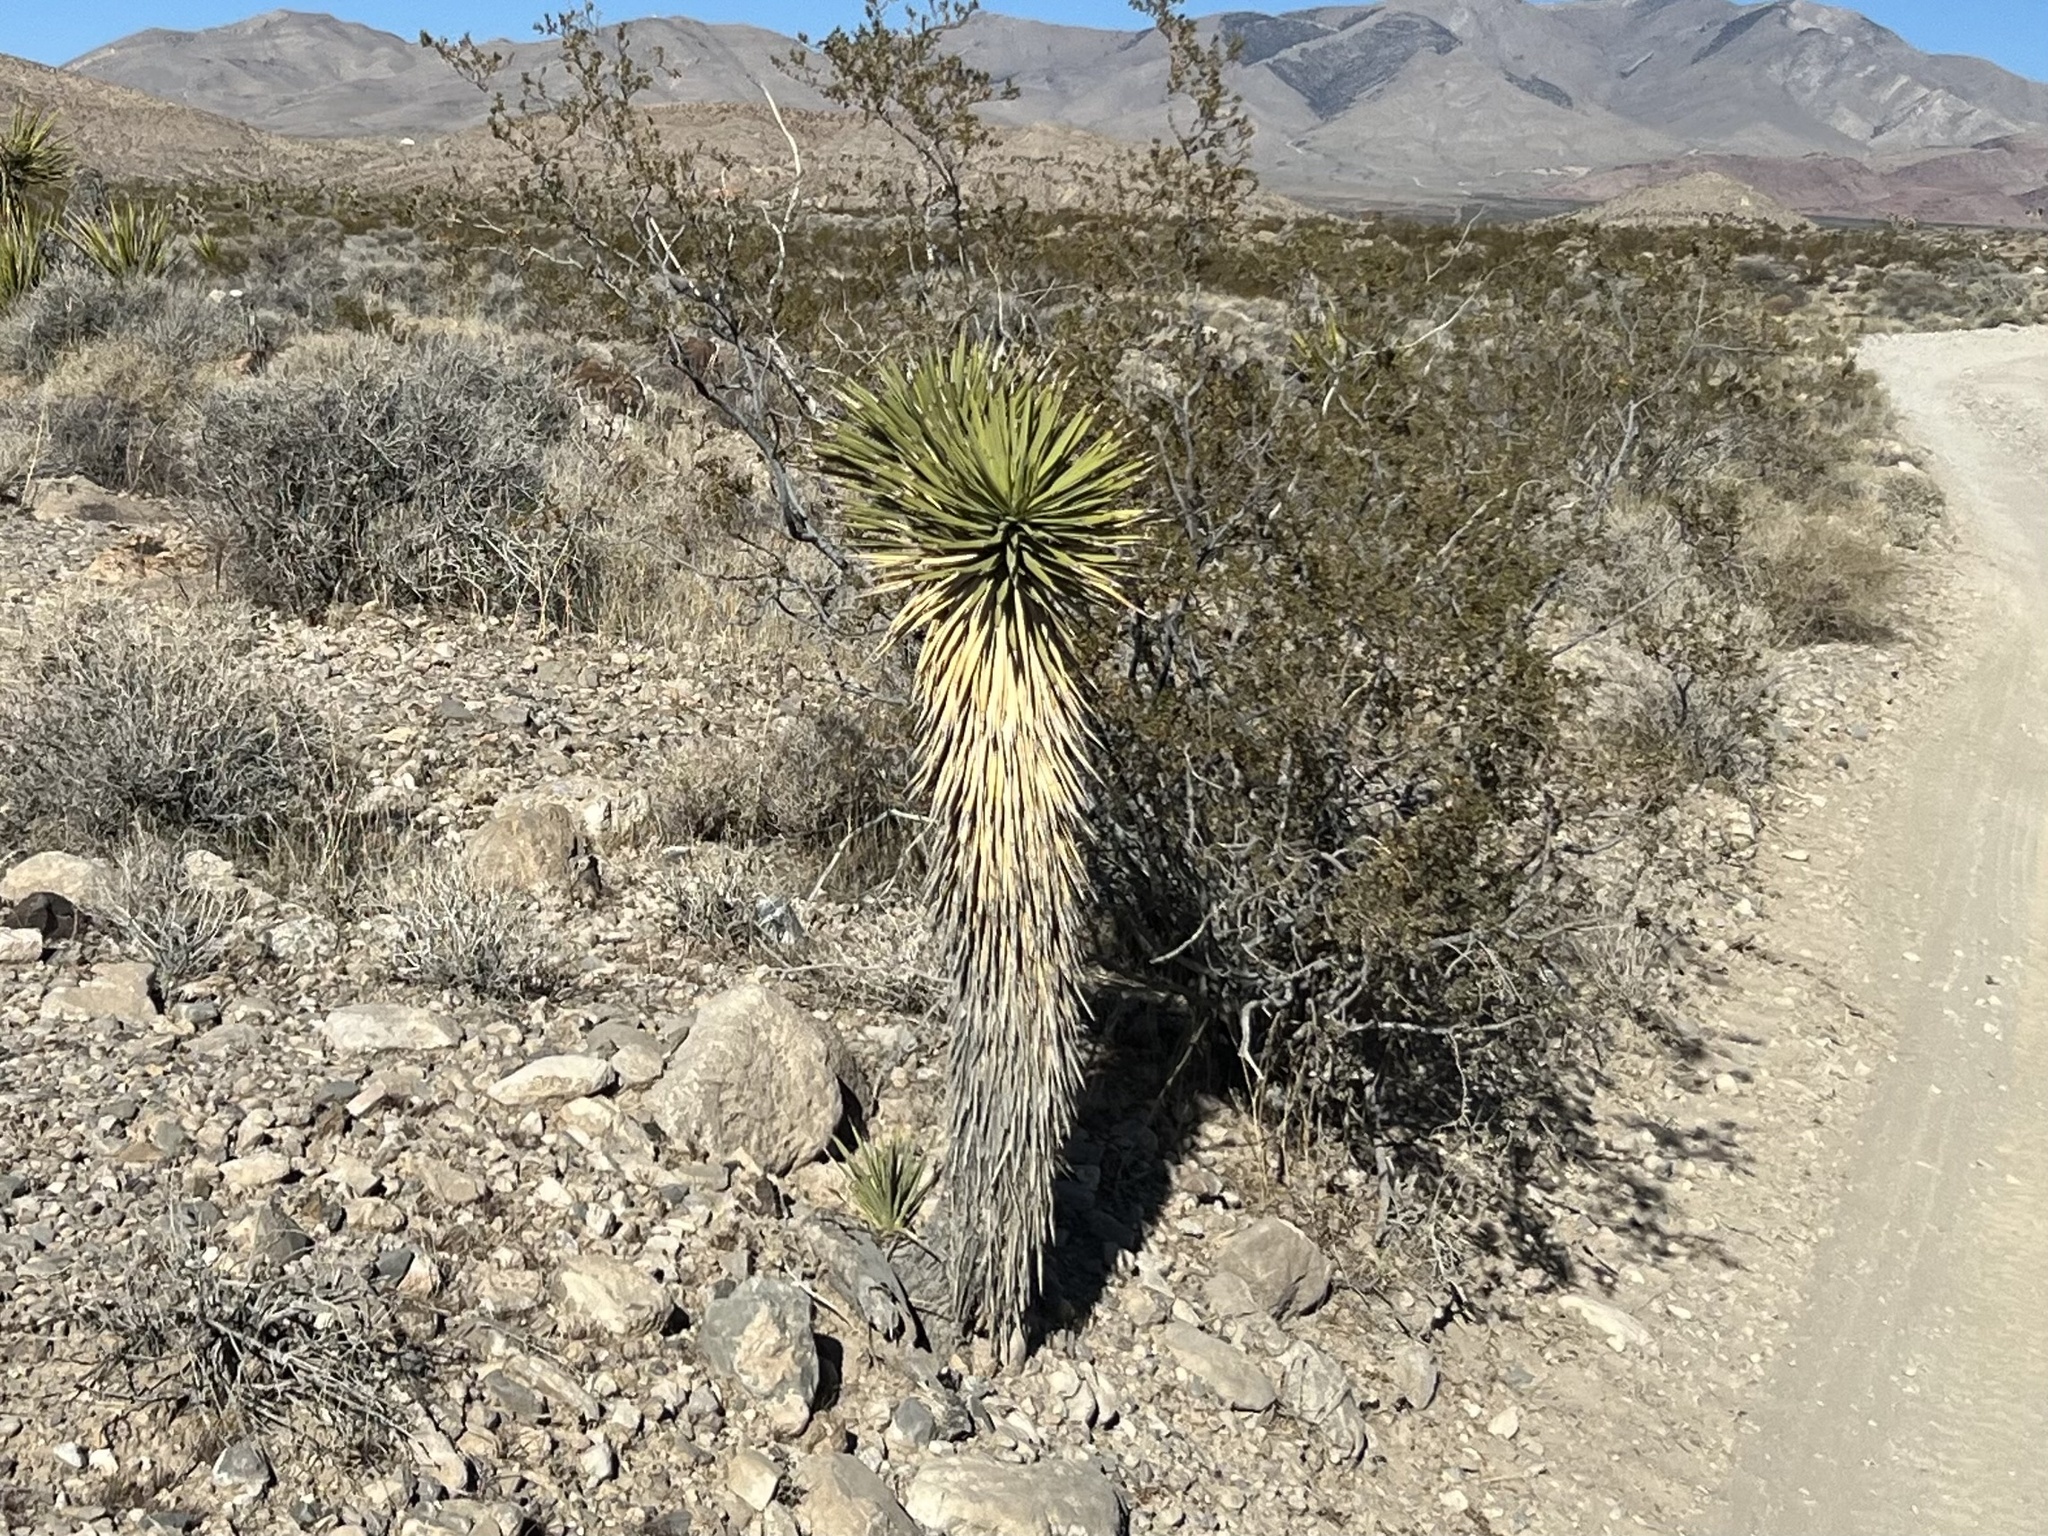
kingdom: Plantae
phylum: Tracheophyta
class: Liliopsida
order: Asparagales
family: Asparagaceae
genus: Yucca
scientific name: Yucca brevifolia
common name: Joshua tree
